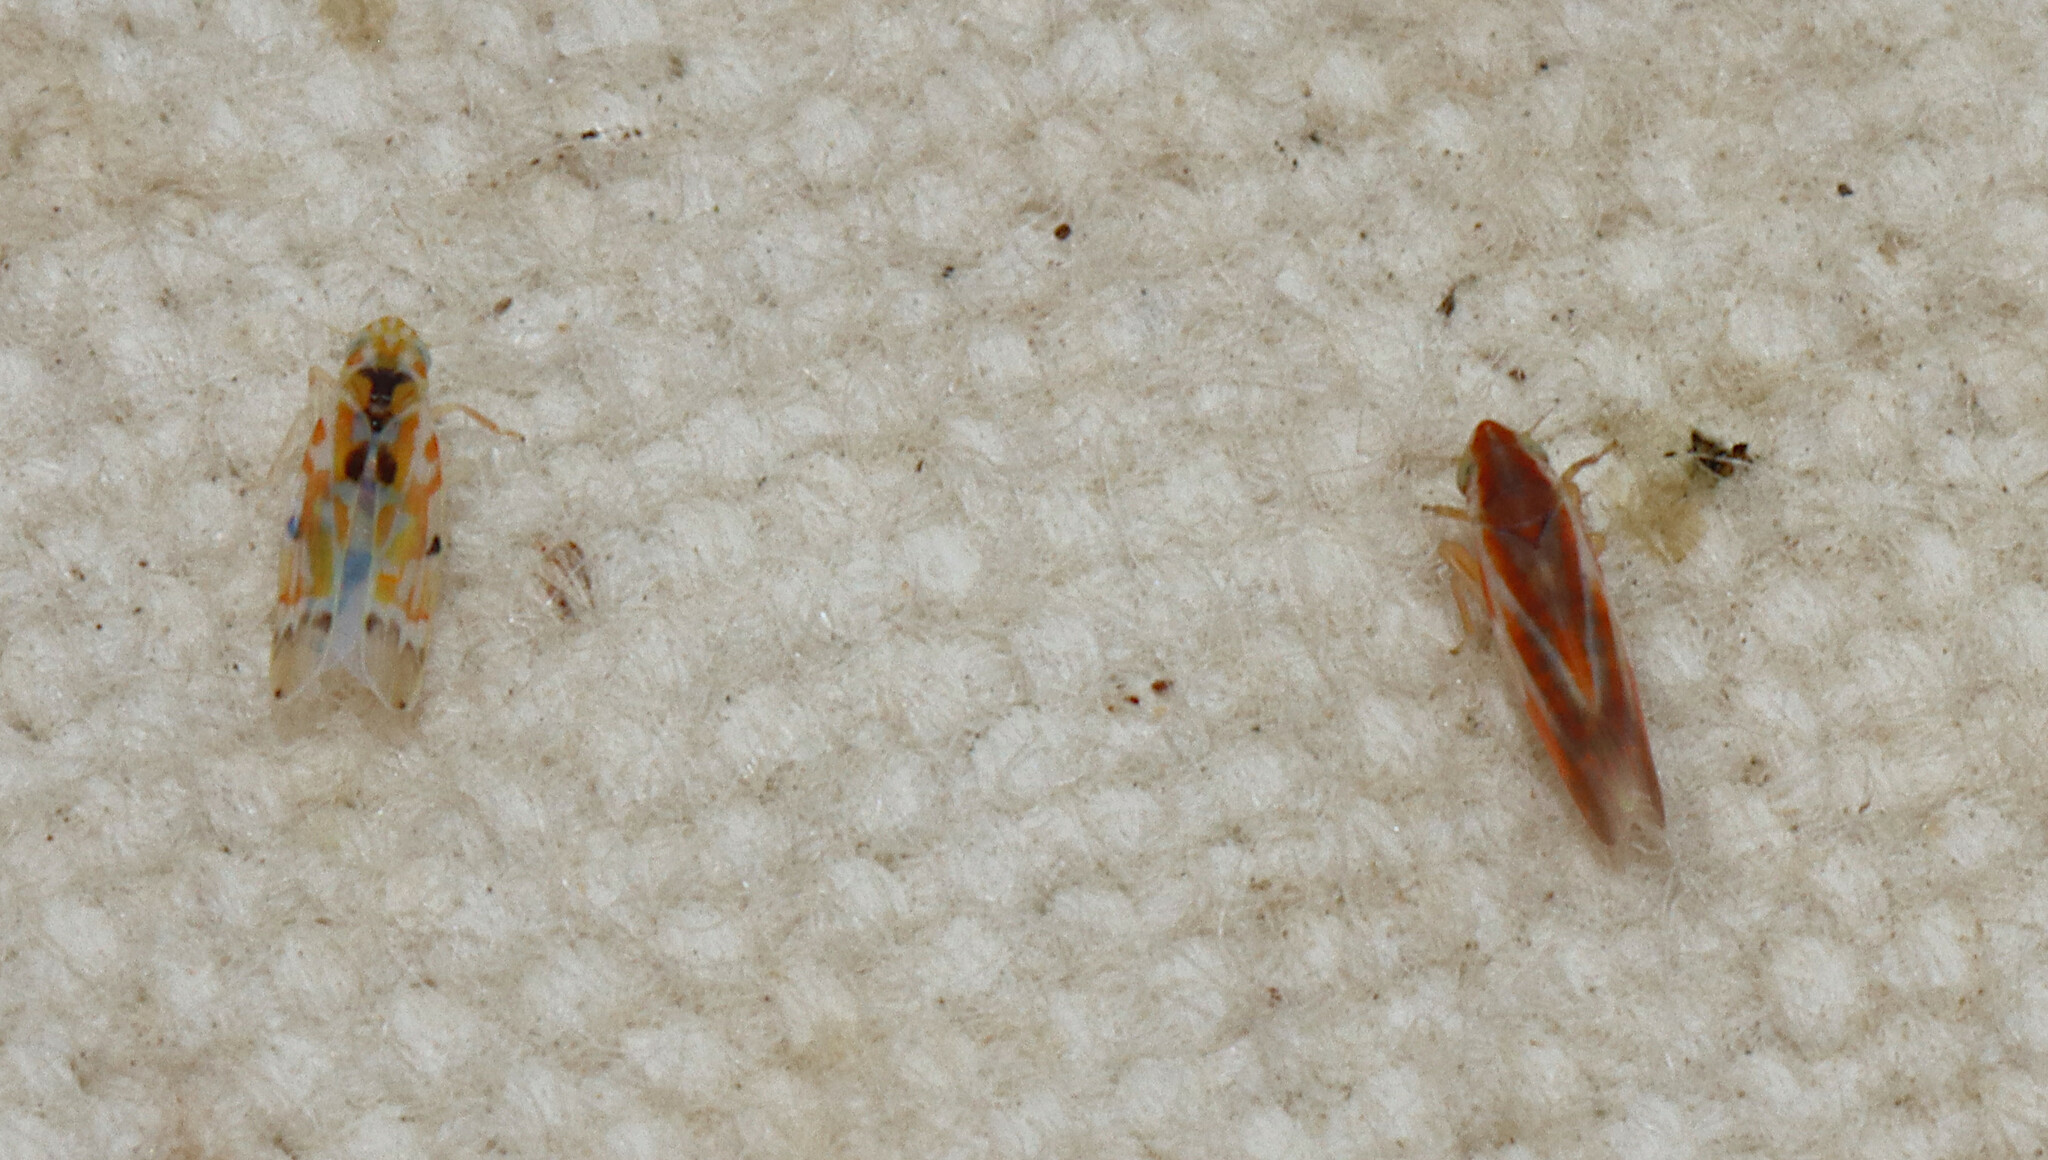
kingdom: Animalia
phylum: Arthropoda
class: Insecta
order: Hemiptera
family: Cicadellidae
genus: Erythroneura
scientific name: Erythroneura octonotata
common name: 8-spotted leafhopper
